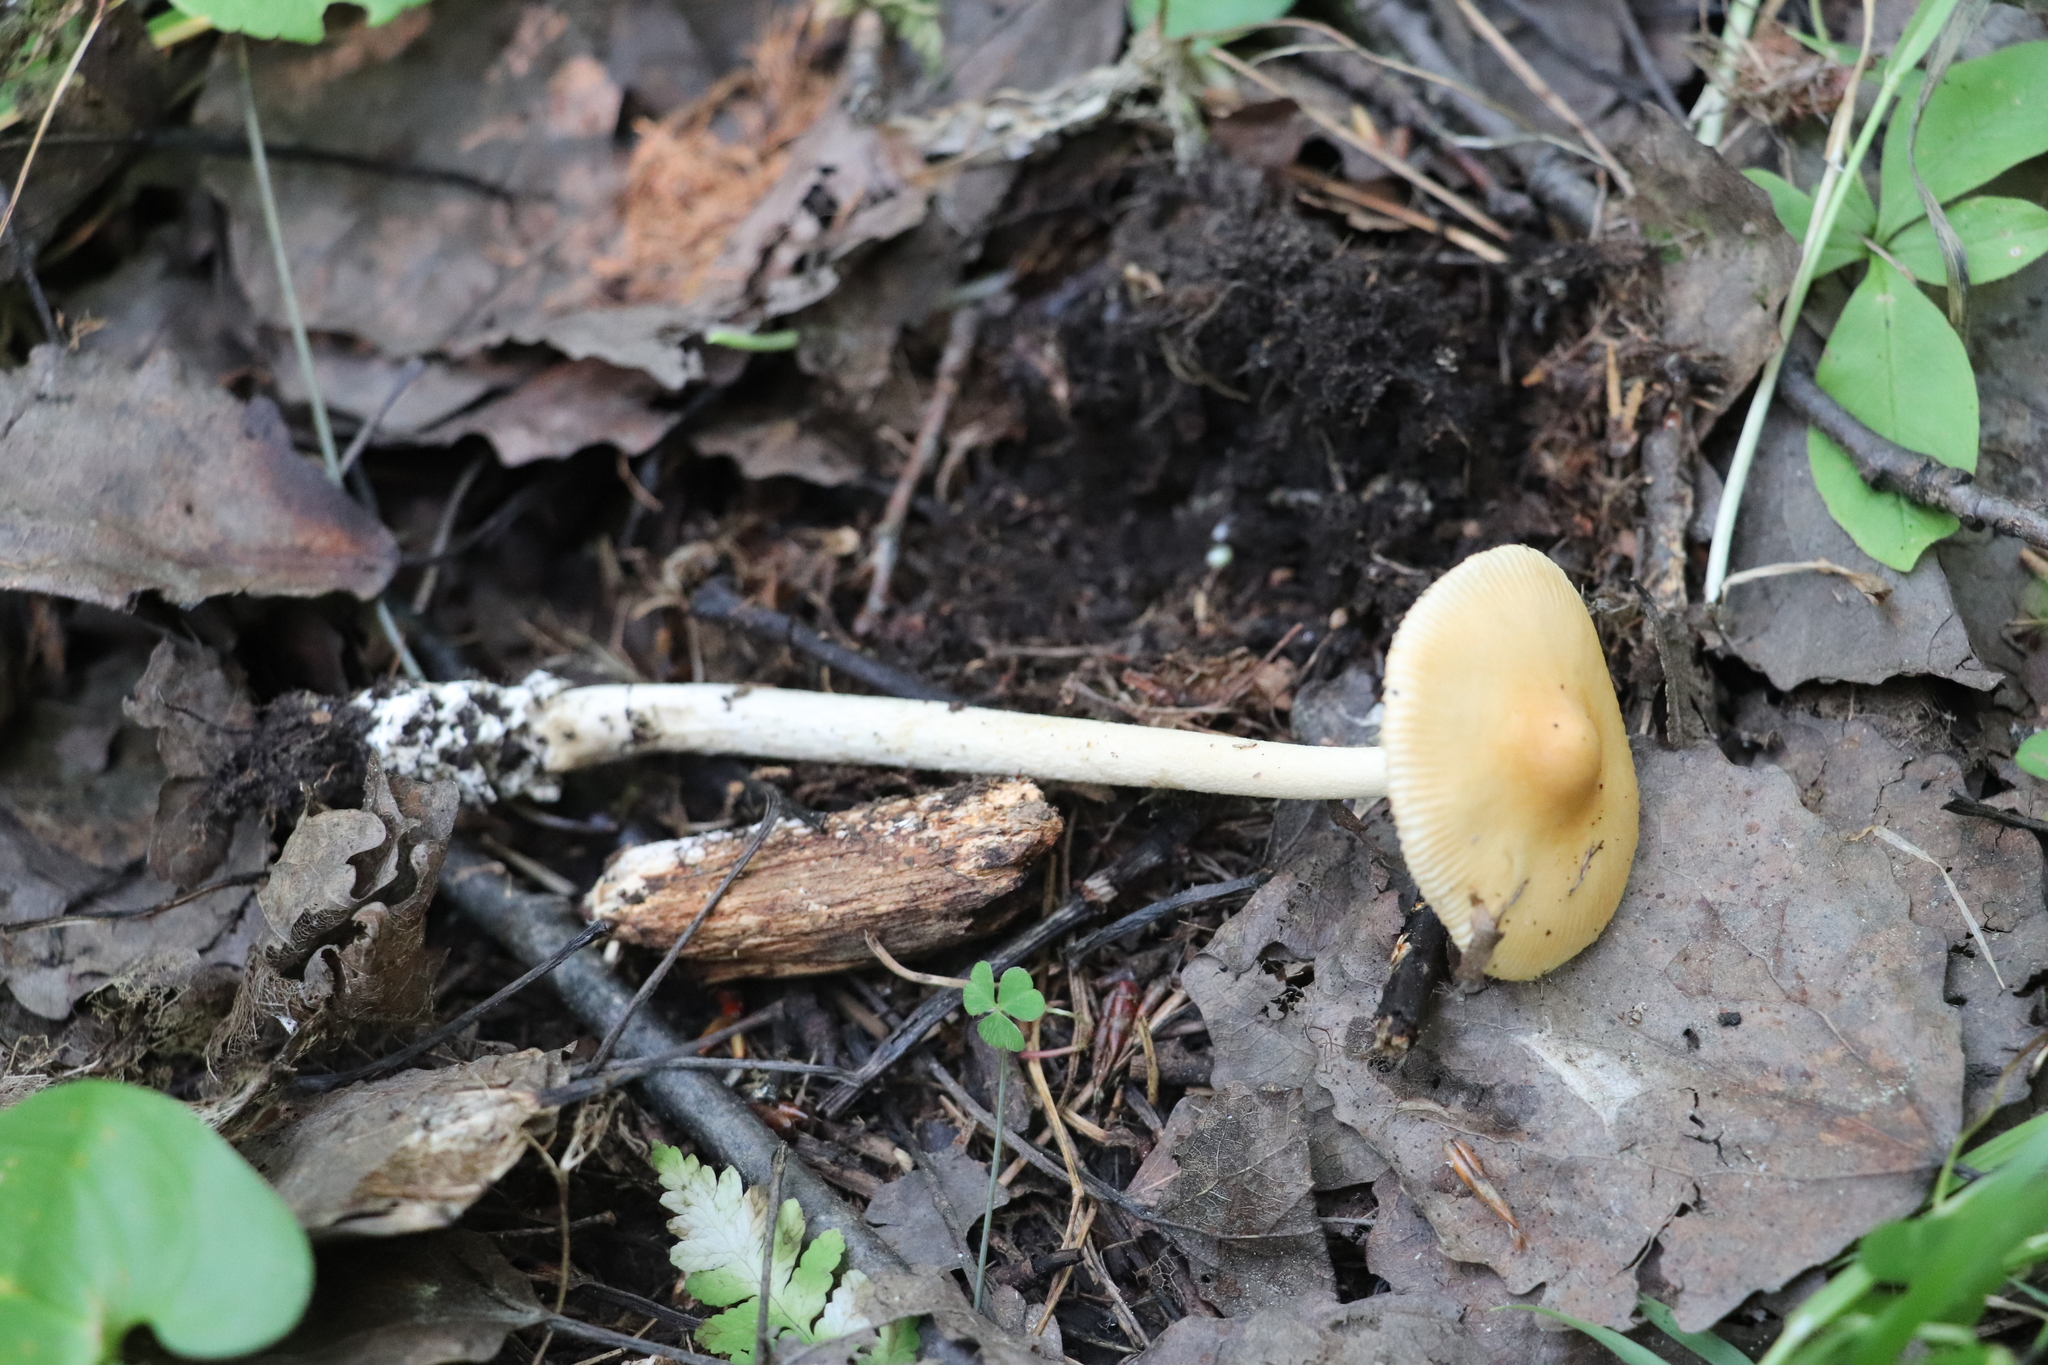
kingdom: Fungi
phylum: Basidiomycota
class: Agaricomycetes
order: Agaricales
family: Amanitaceae
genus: Amanita
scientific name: Amanita crocea
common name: Orange grisette
